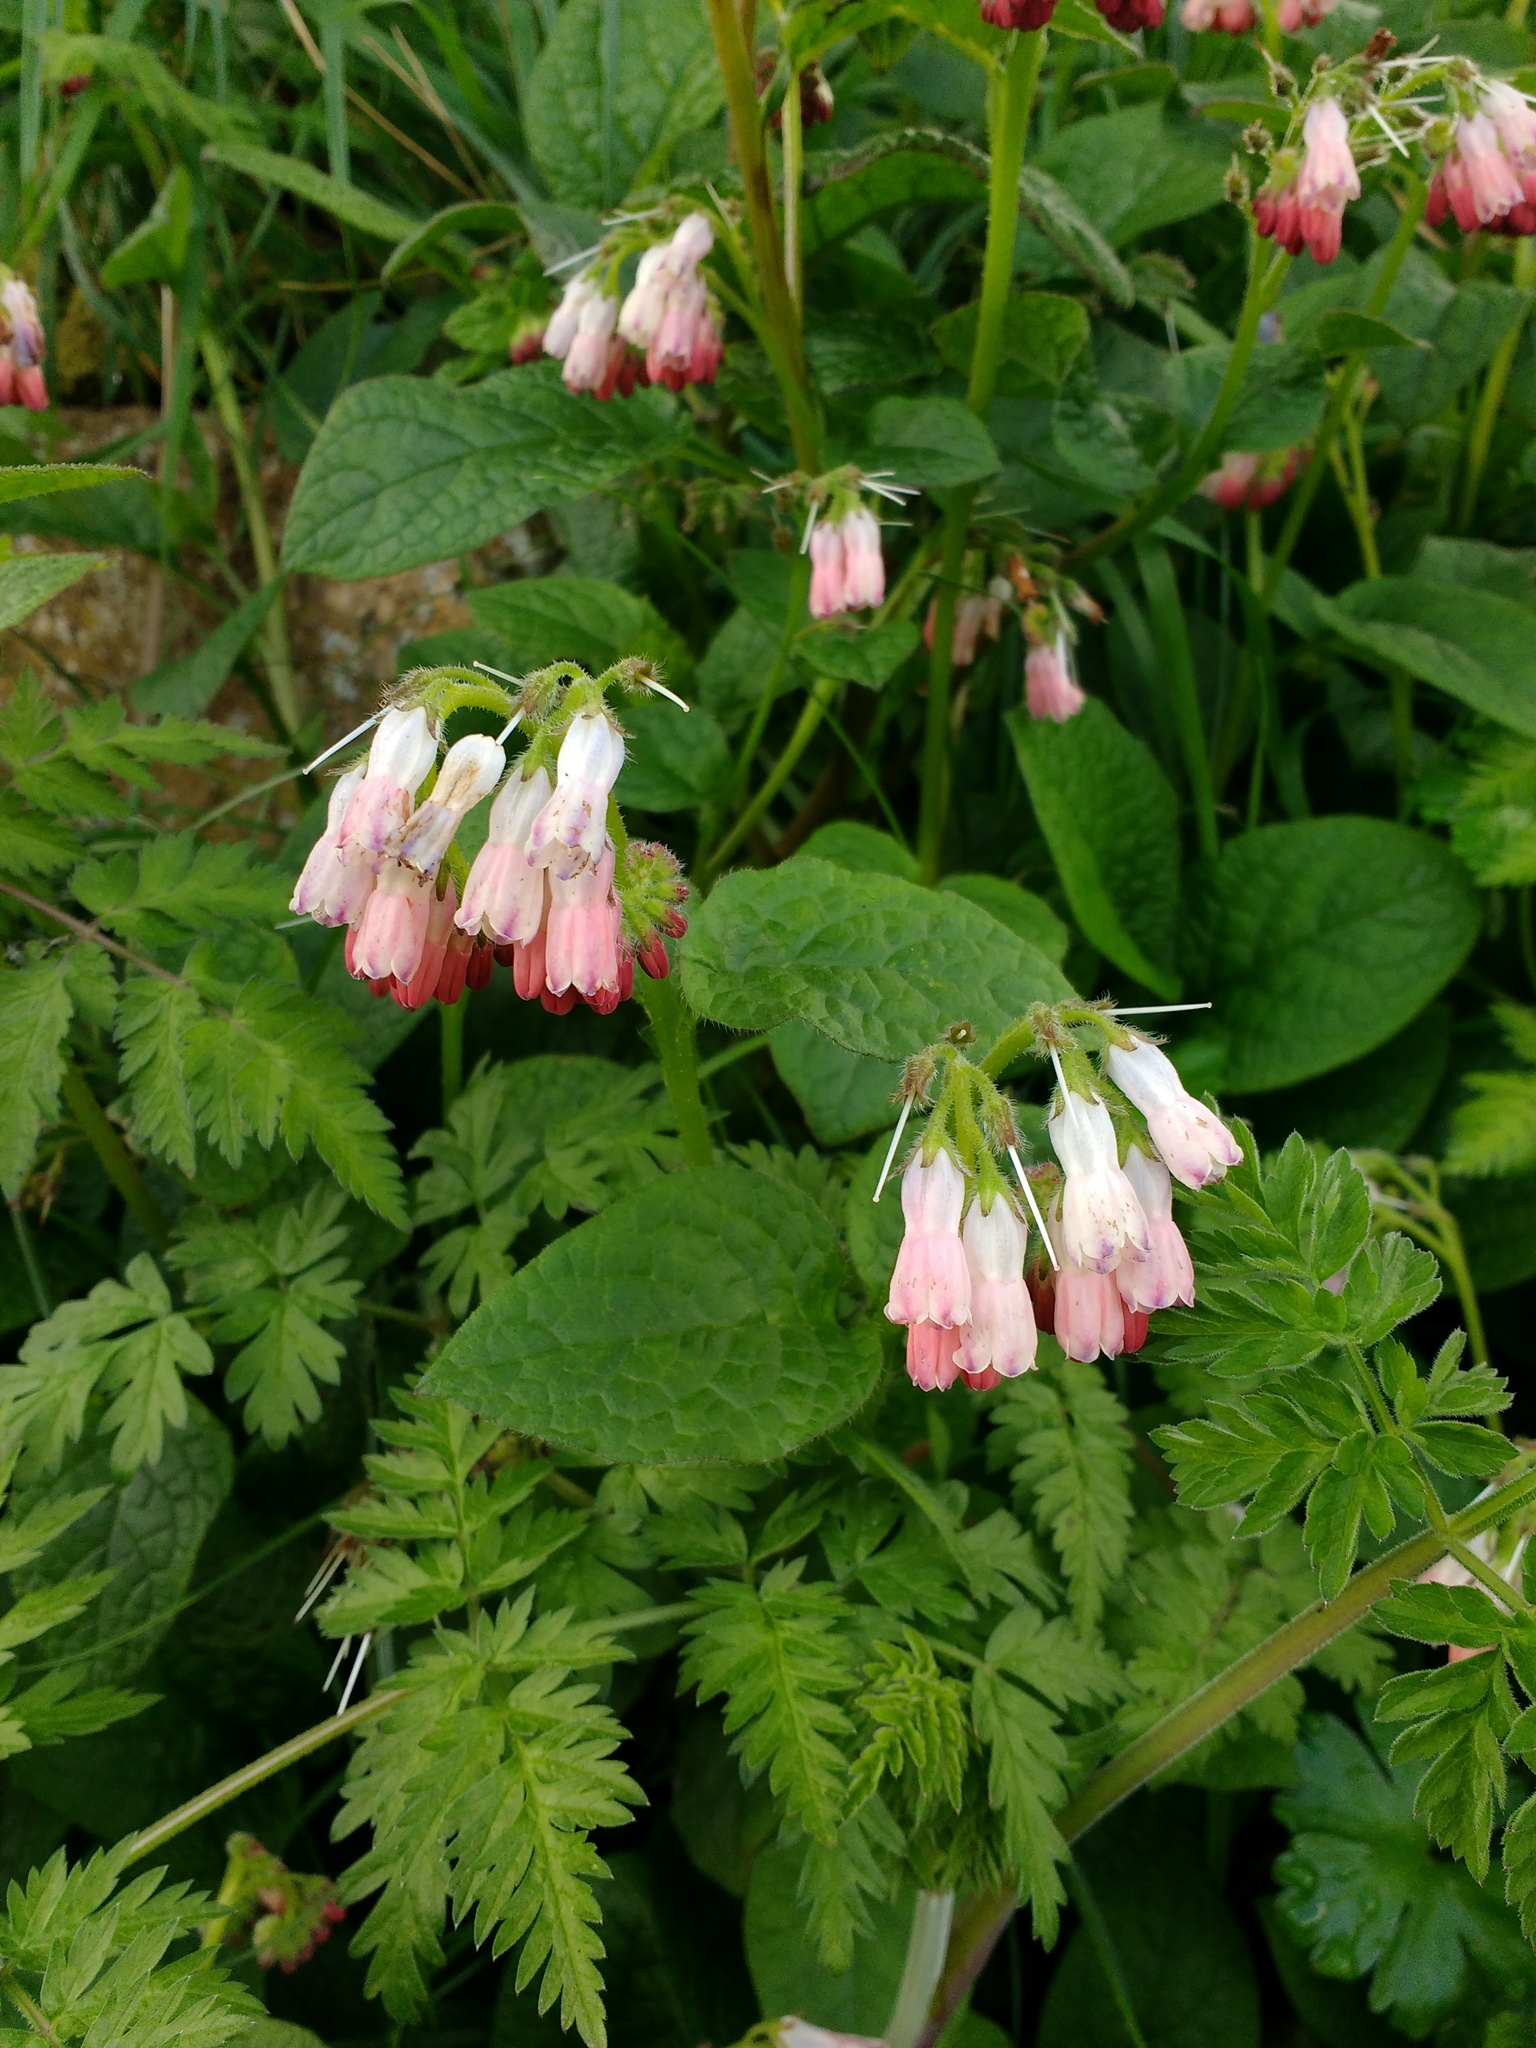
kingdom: Plantae
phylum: Tracheophyta
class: Magnoliopsida
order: Boraginales
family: Boraginaceae
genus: Symphytum
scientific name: Symphytum hidcotense
